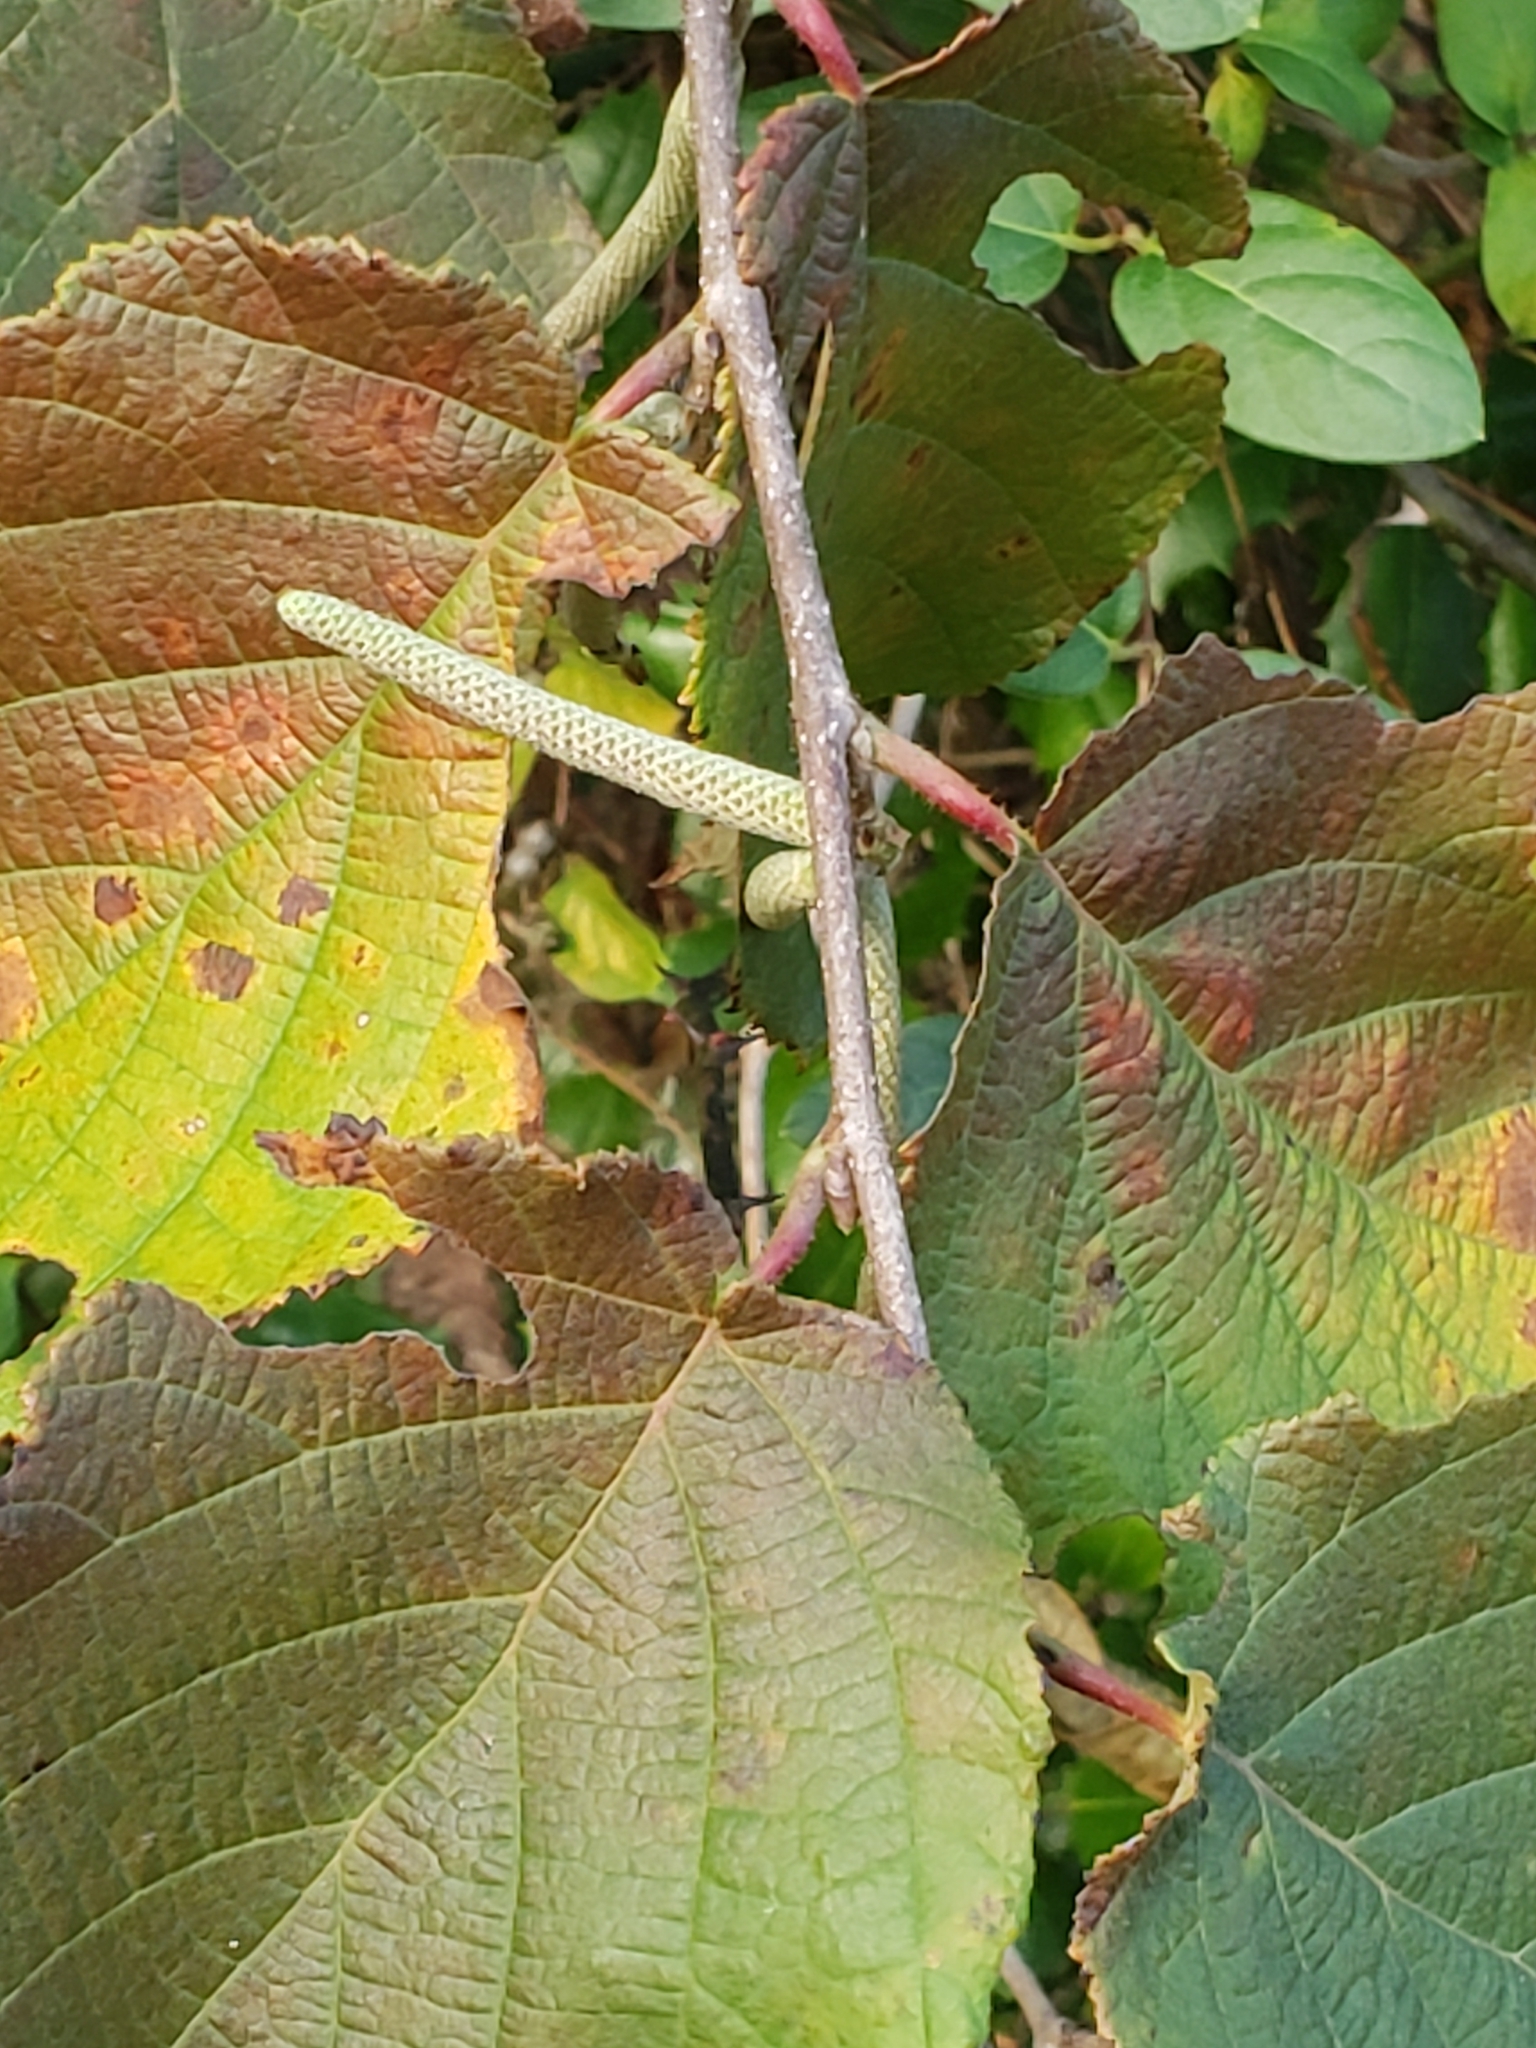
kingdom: Plantae
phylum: Tracheophyta
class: Magnoliopsida
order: Fagales
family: Betulaceae
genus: Corylus
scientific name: Corylus americana
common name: American hazel
